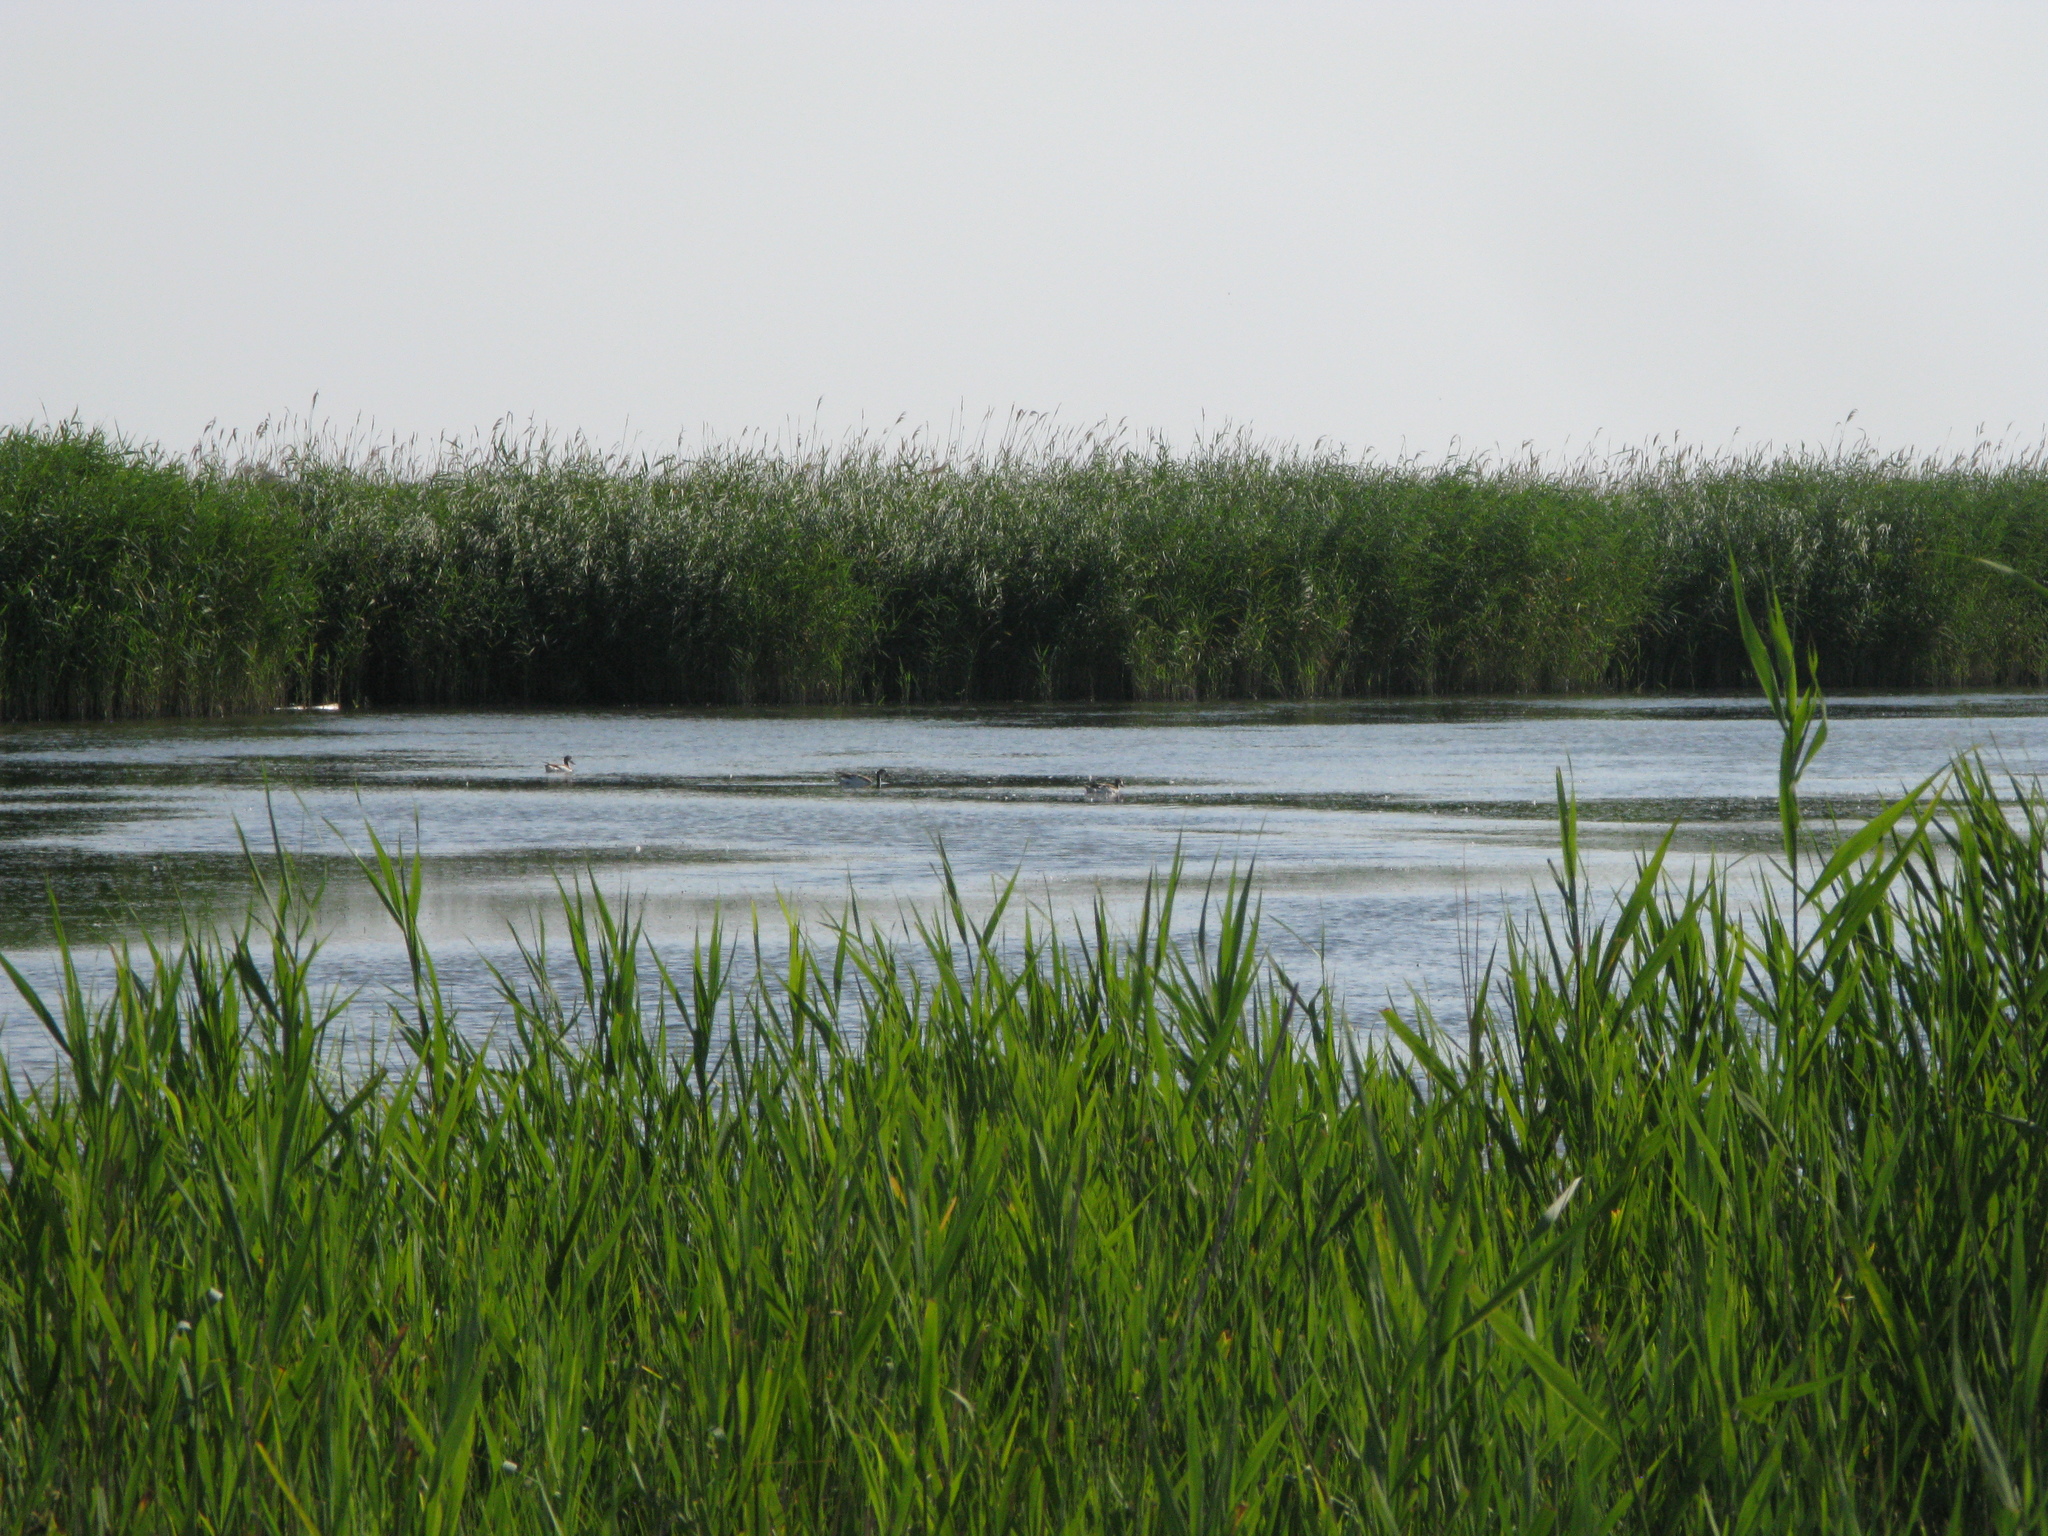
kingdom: Animalia
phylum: Chordata
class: Aves
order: Anseriformes
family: Anatidae
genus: Tadorna
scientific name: Tadorna tadorna
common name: Common shelduck
